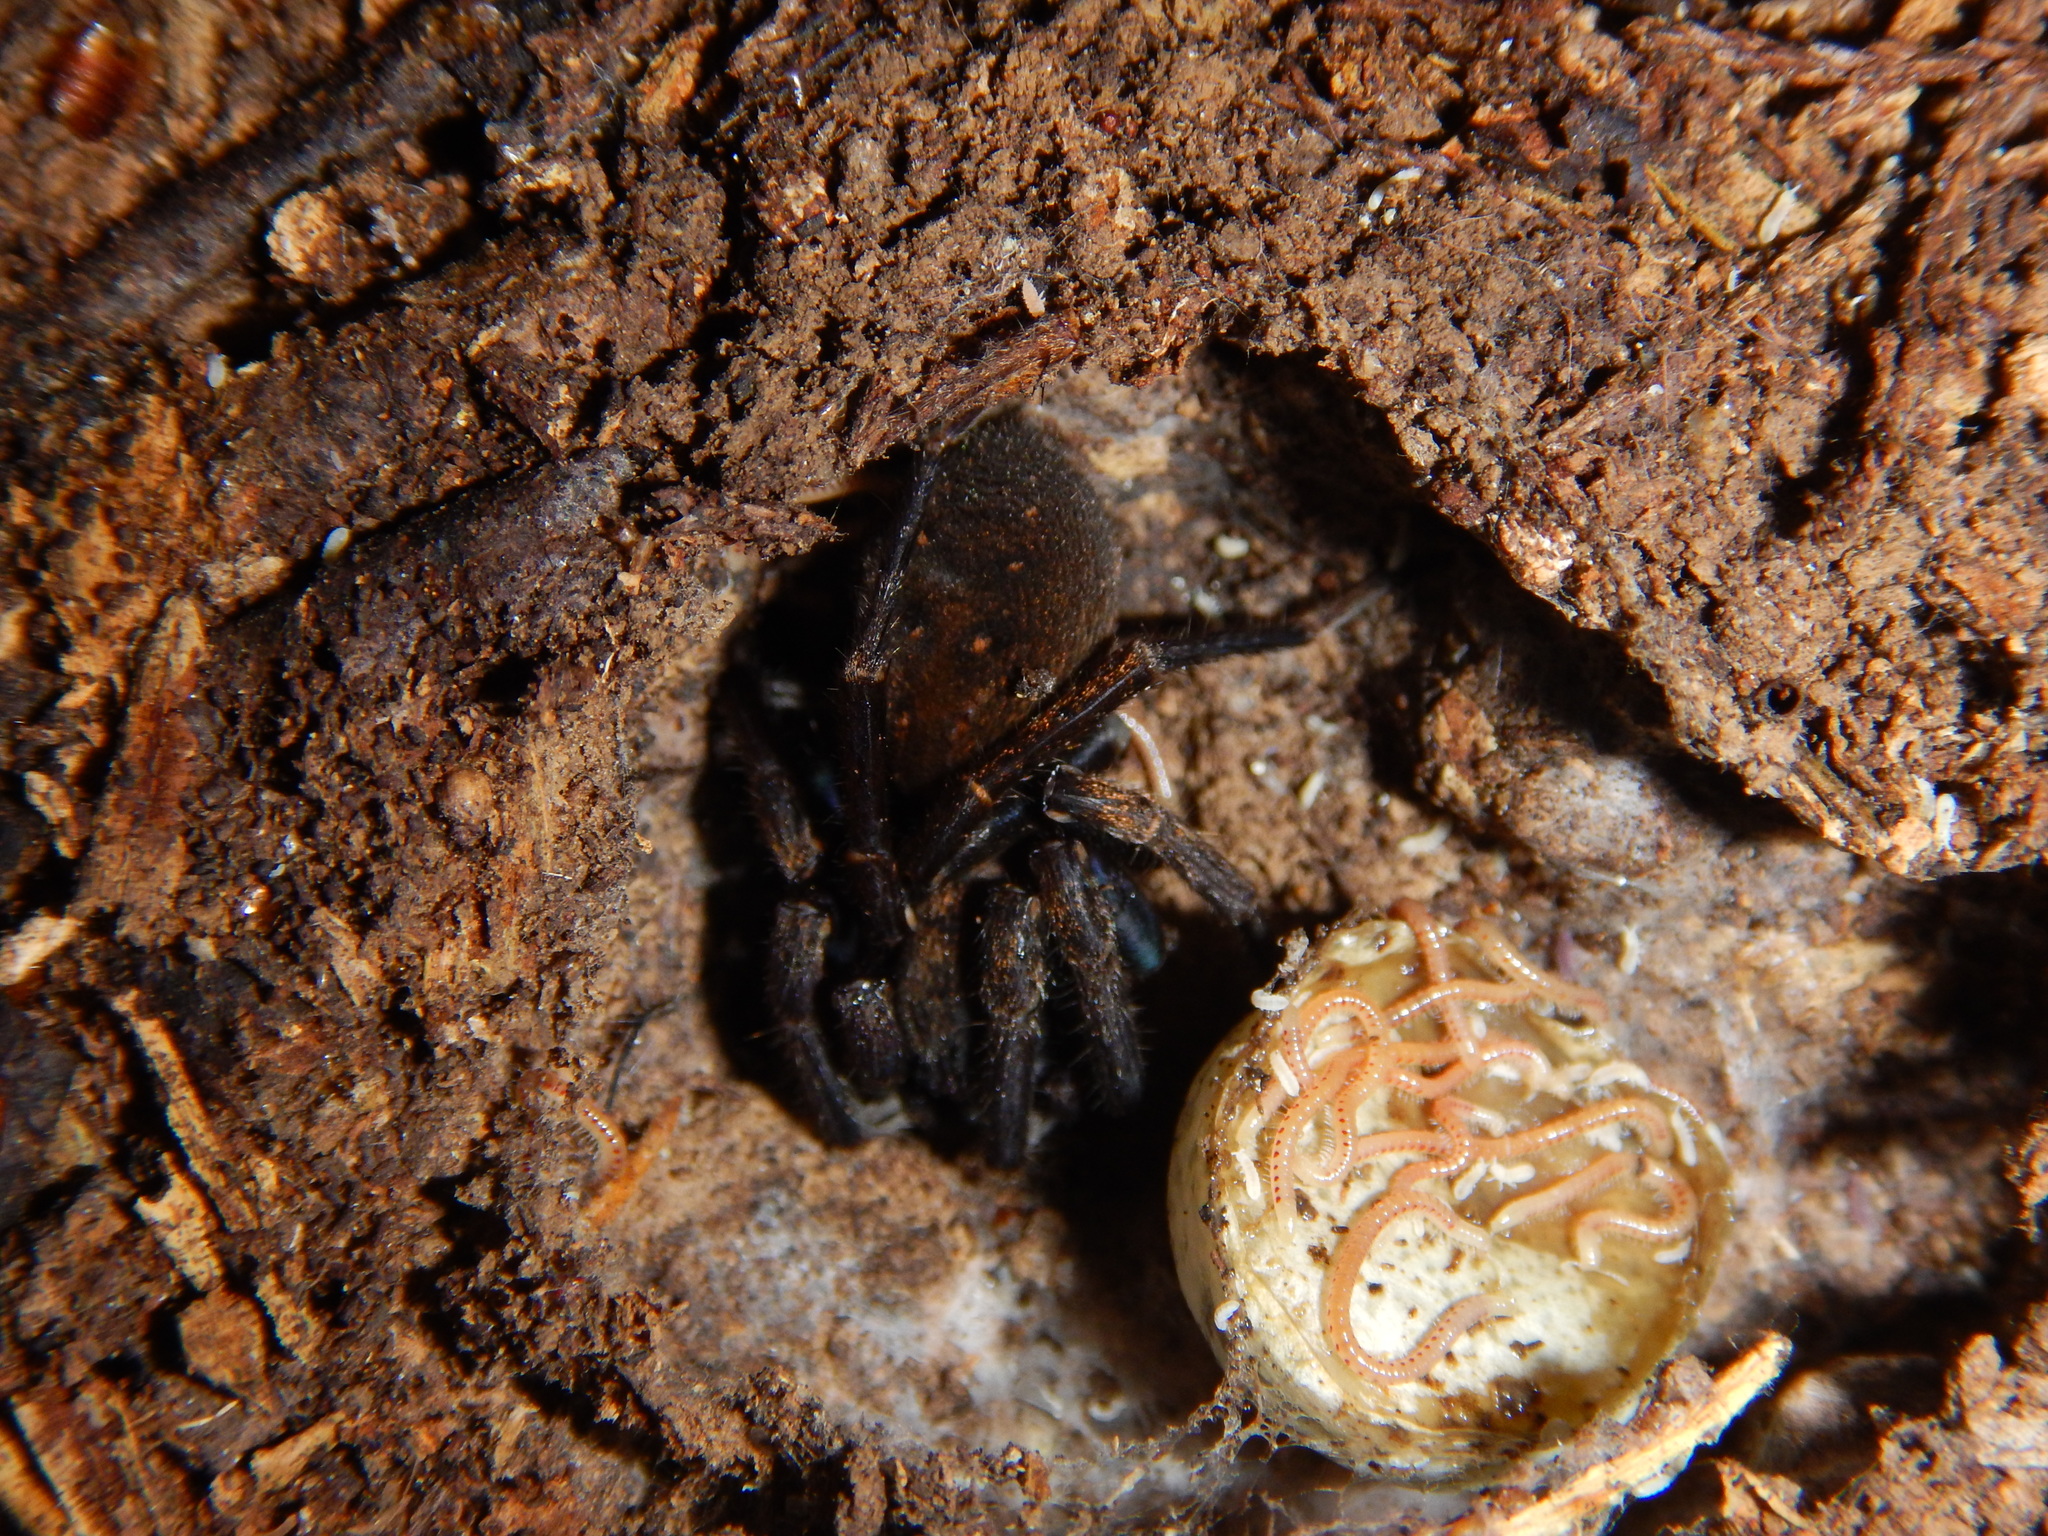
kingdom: Animalia
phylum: Arthropoda
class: Diplopoda
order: Julida
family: Blaniulidae
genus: Blaniulus
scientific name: Blaniulus guttulatus
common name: Spotted snake millipede
